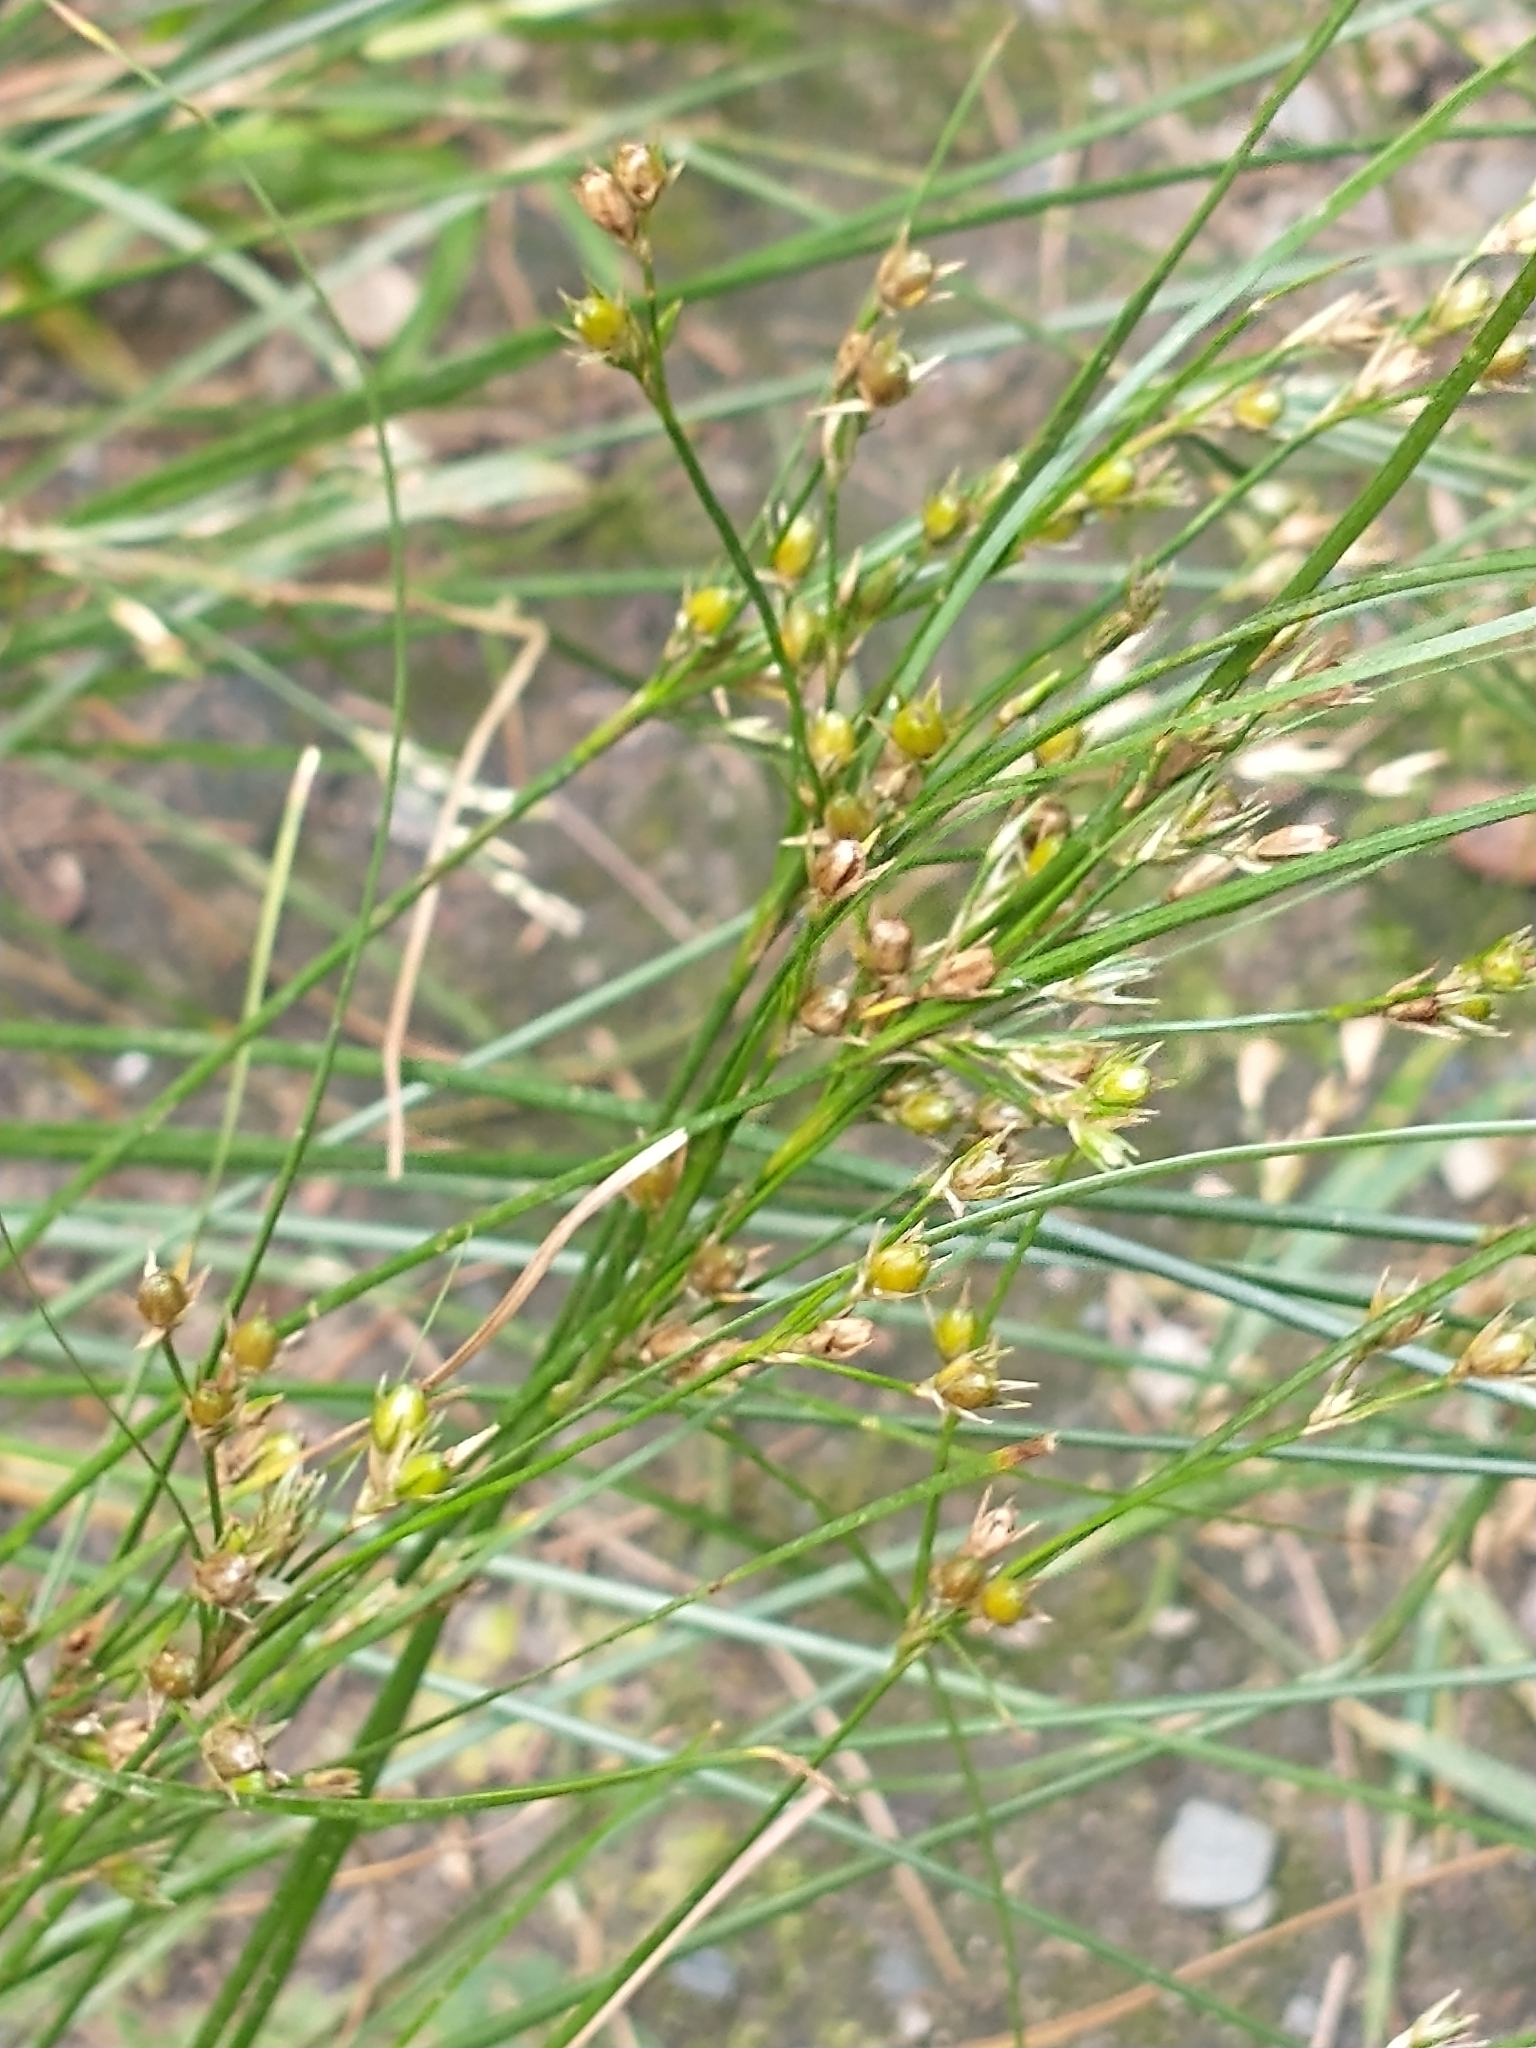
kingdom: Plantae
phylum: Tracheophyta
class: Liliopsida
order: Poales
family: Juncaceae
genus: Juncus
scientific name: Juncus tenuis
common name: Slender rush
